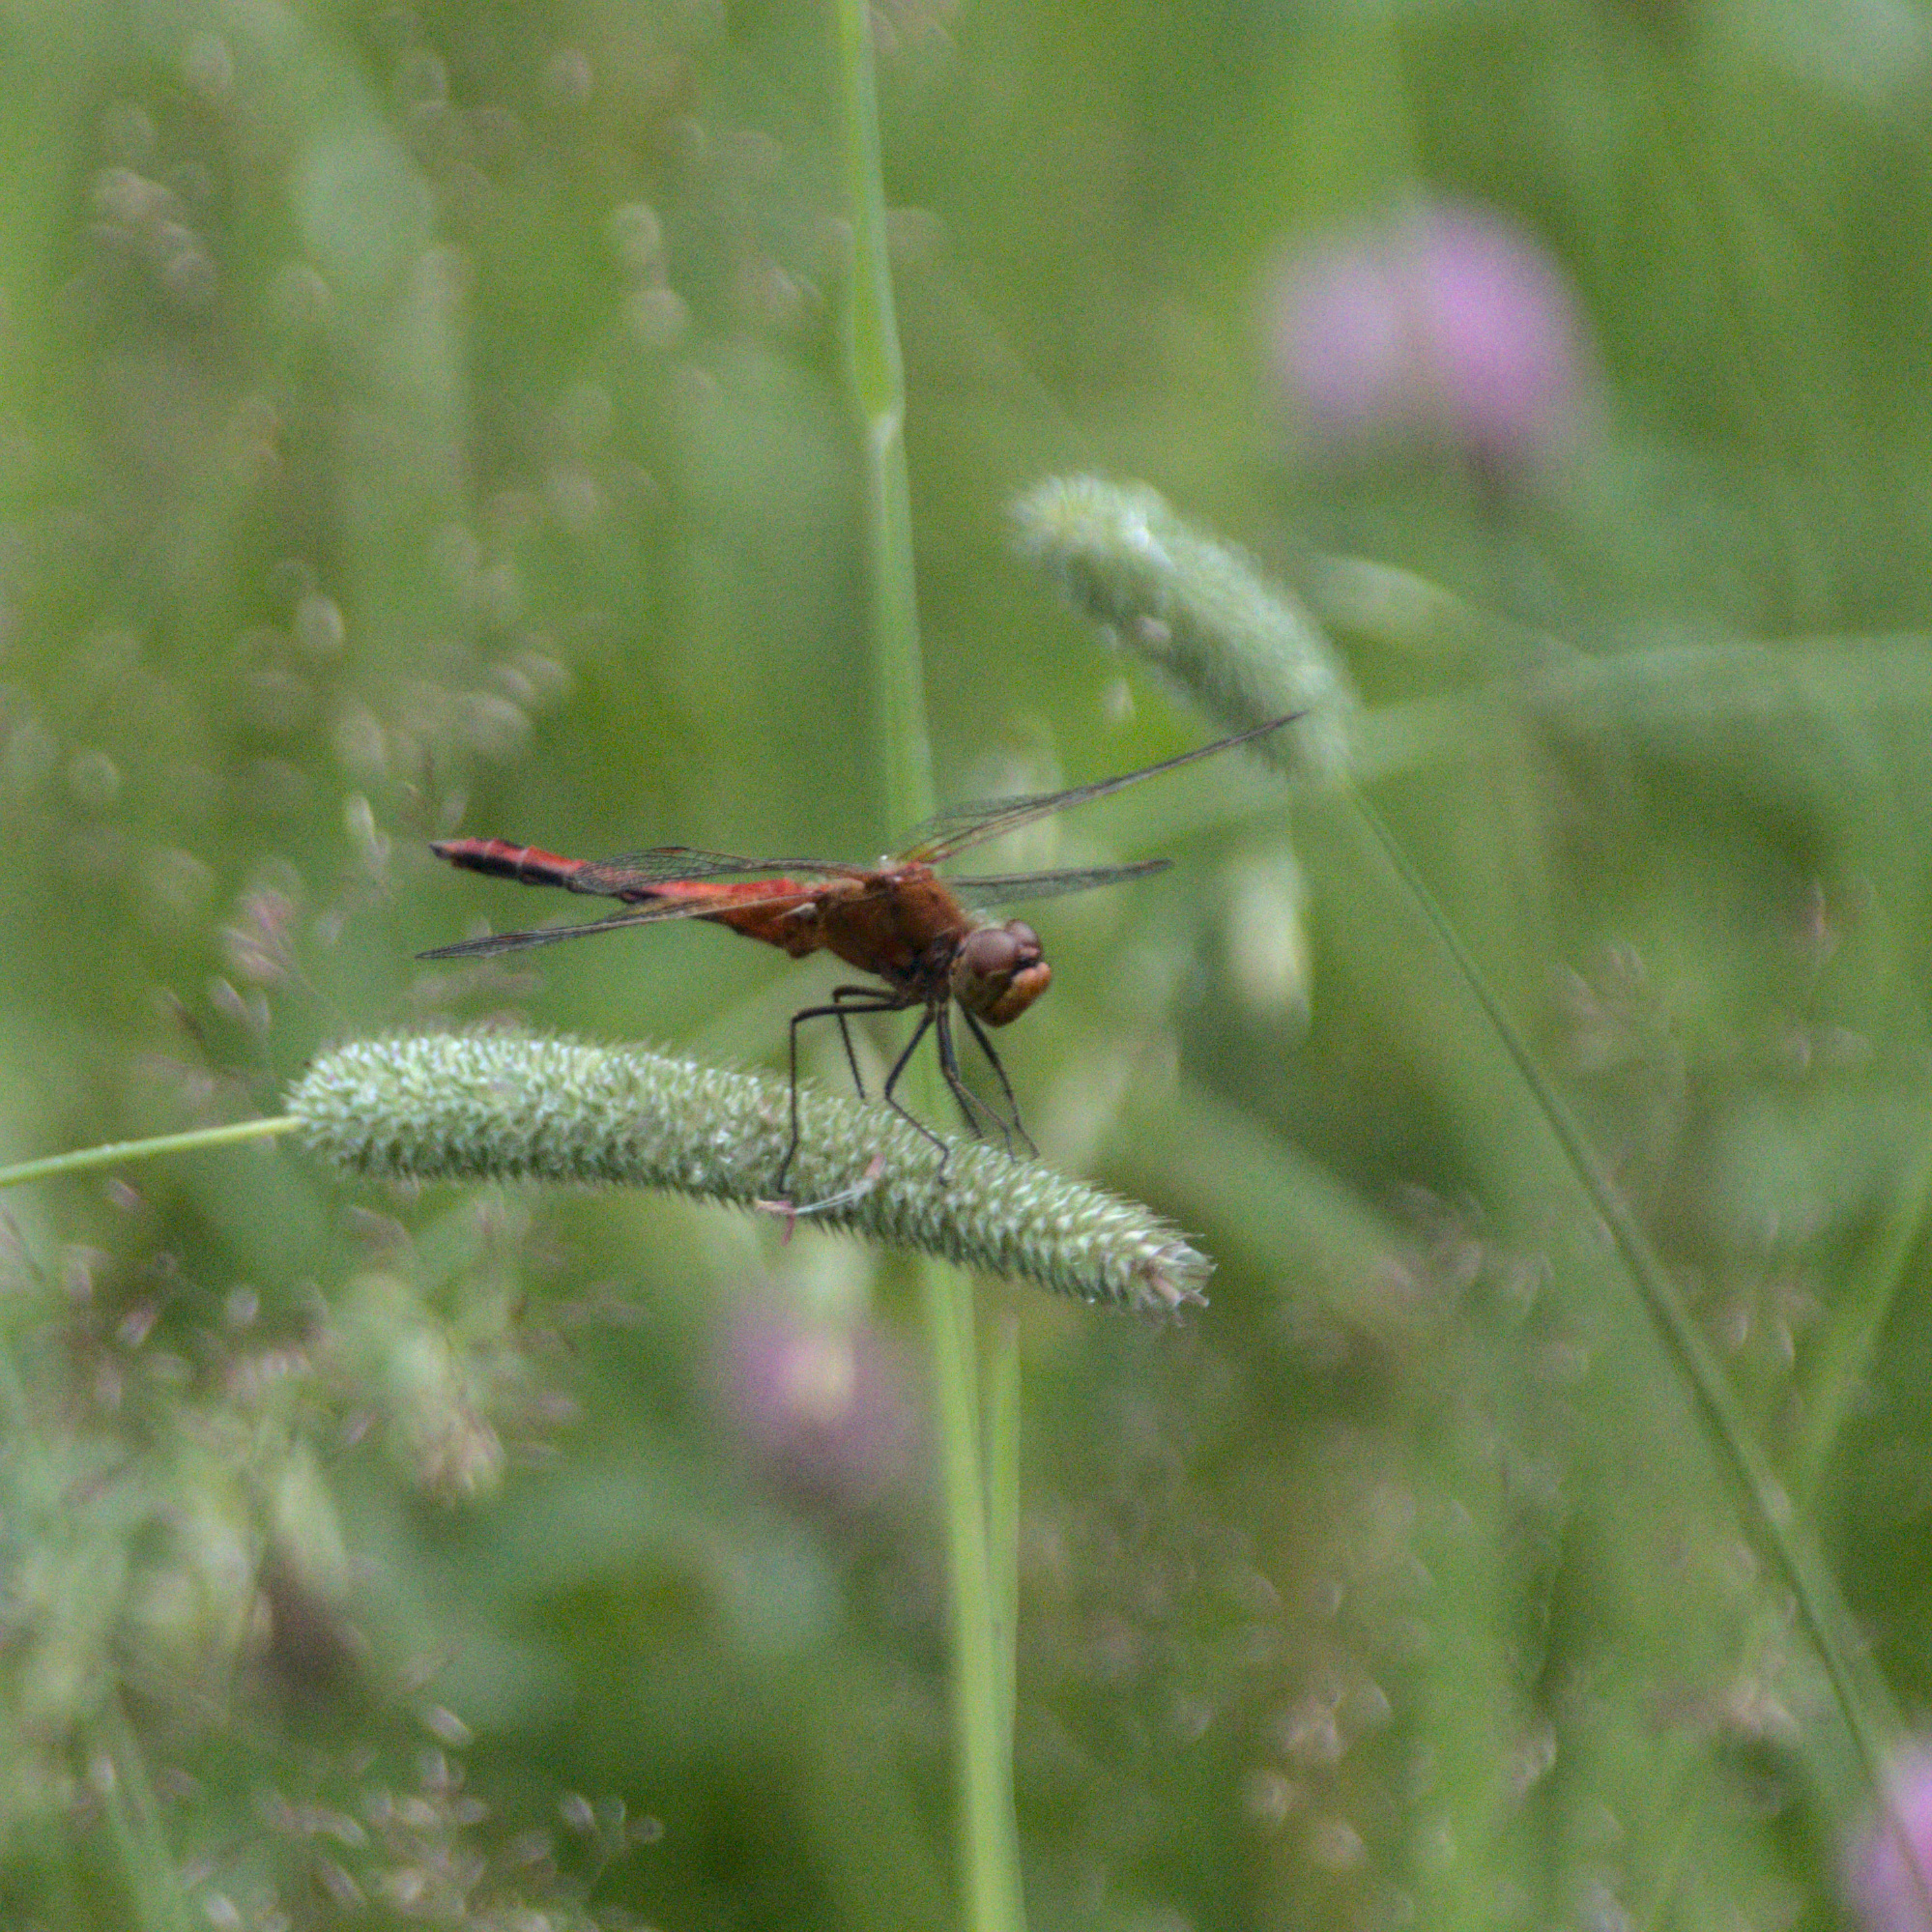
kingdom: Animalia
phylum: Arthropoda
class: Insecta
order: Odonata
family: Libellulidae
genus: Sympetrum
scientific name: Sympetrum flaveolum
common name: Yellow-winged darter
